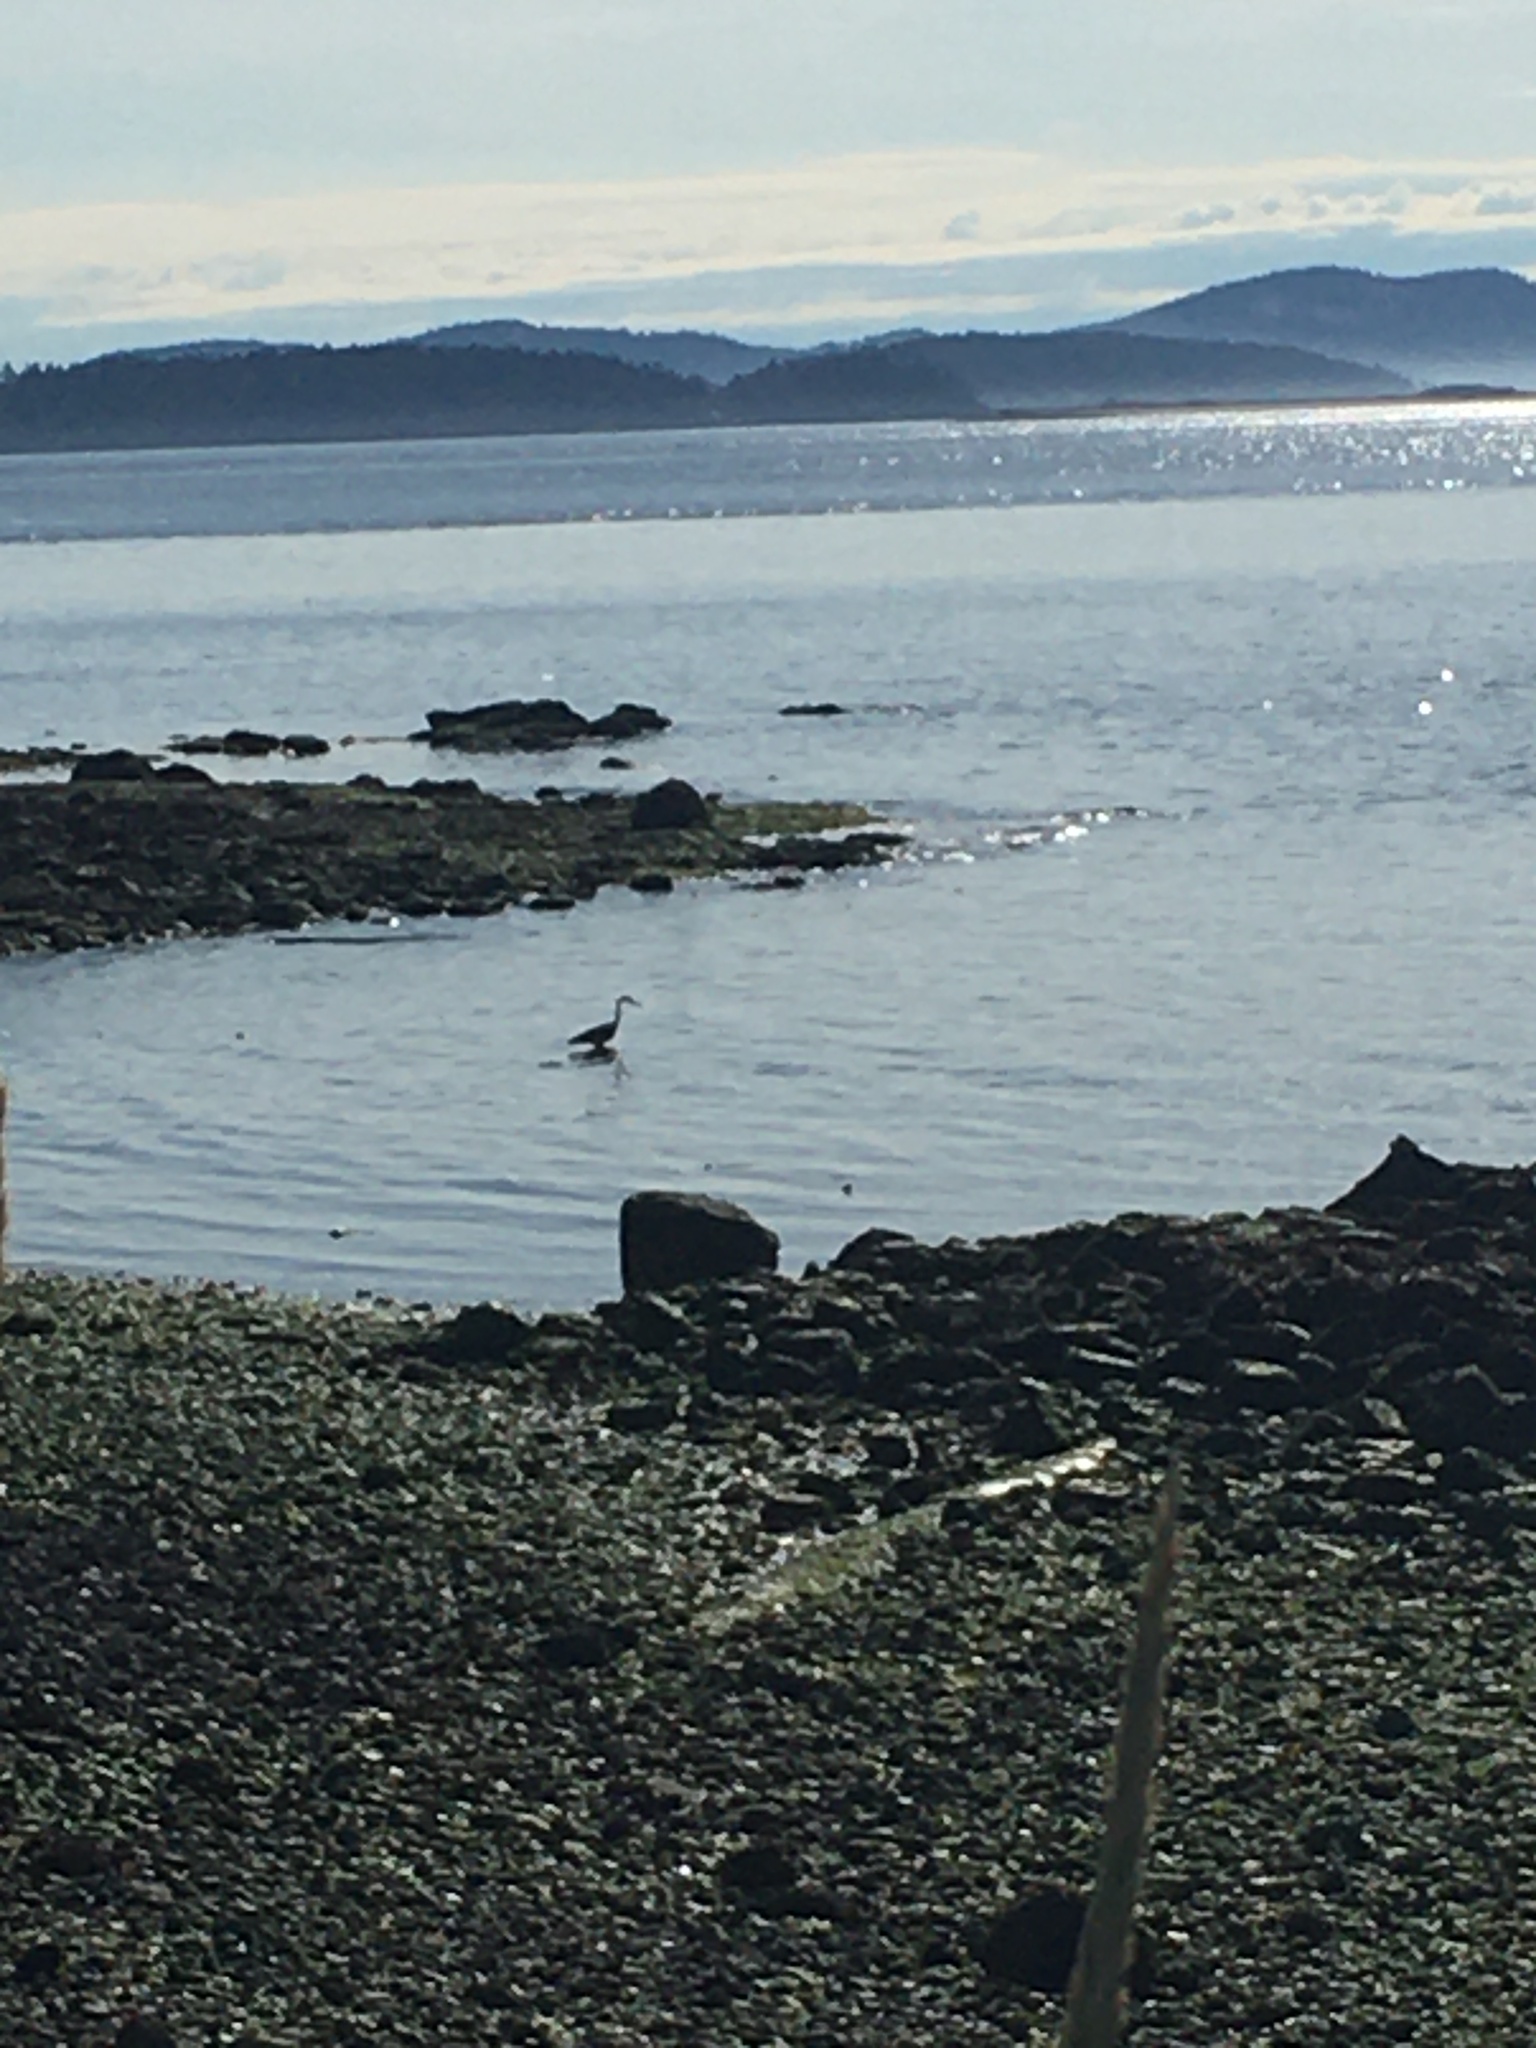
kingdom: Animalia
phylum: Chordata
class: Aves
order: Pelecaniformes
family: Ardeidae
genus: Ardea
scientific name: Ardea herodias
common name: Great blue heron
